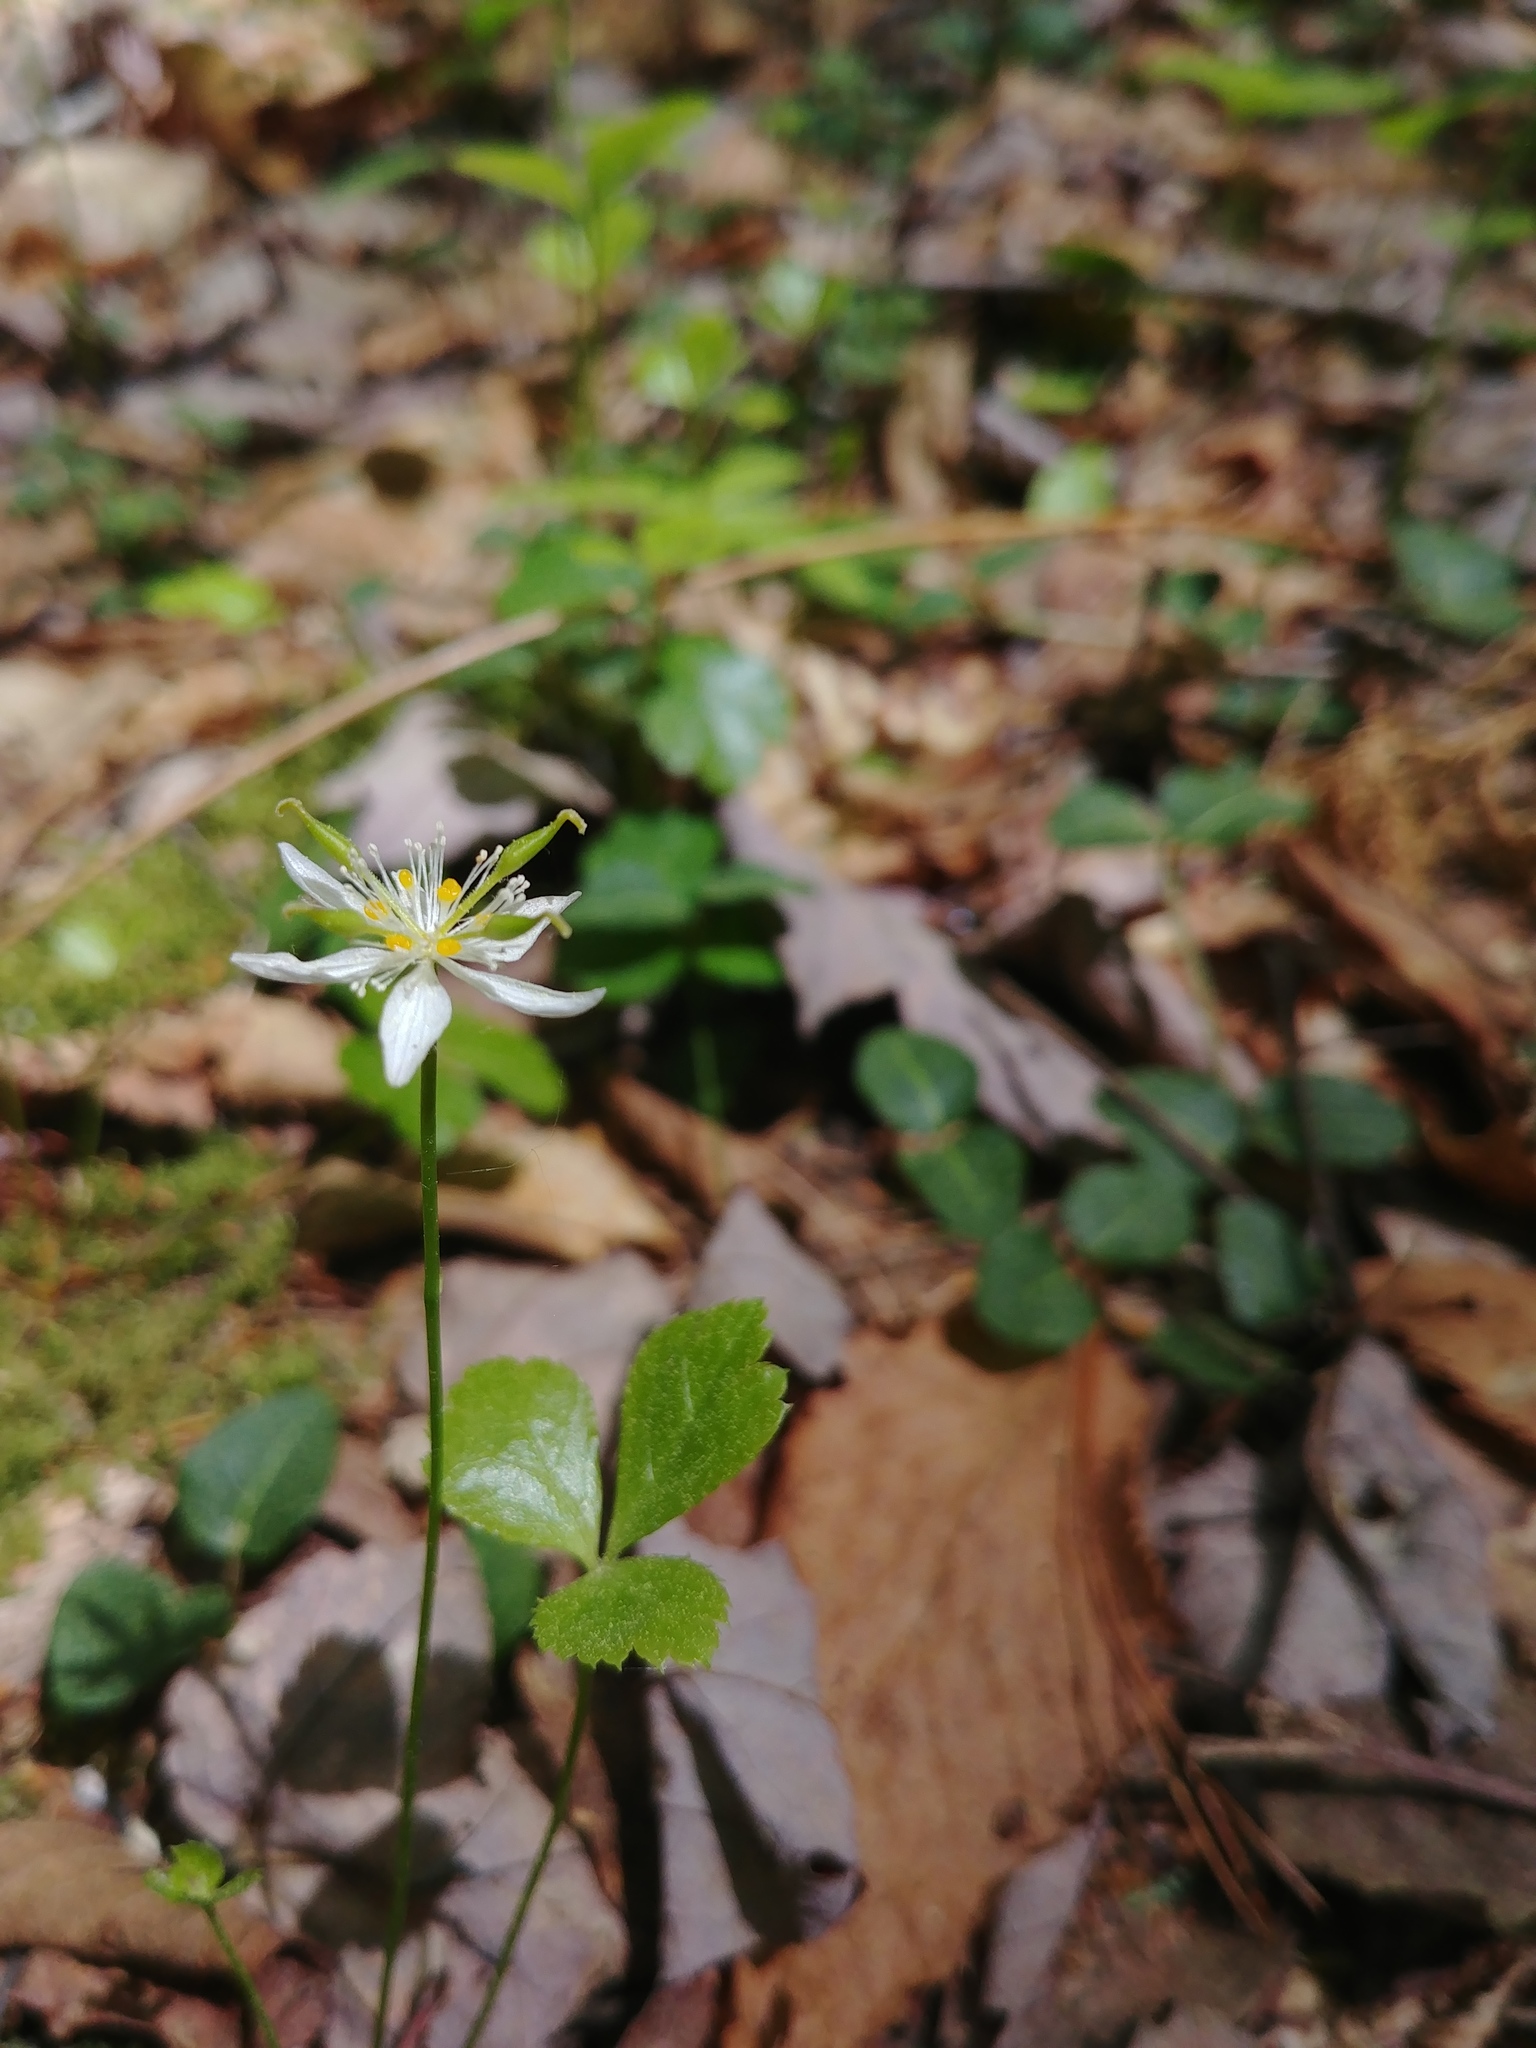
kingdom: Plantae
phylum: Tracheophyta
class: Magnoliopsida
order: Ranunculales
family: Ranunculaceae
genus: Coptis
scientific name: Coptis trifolia
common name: Canker-root
